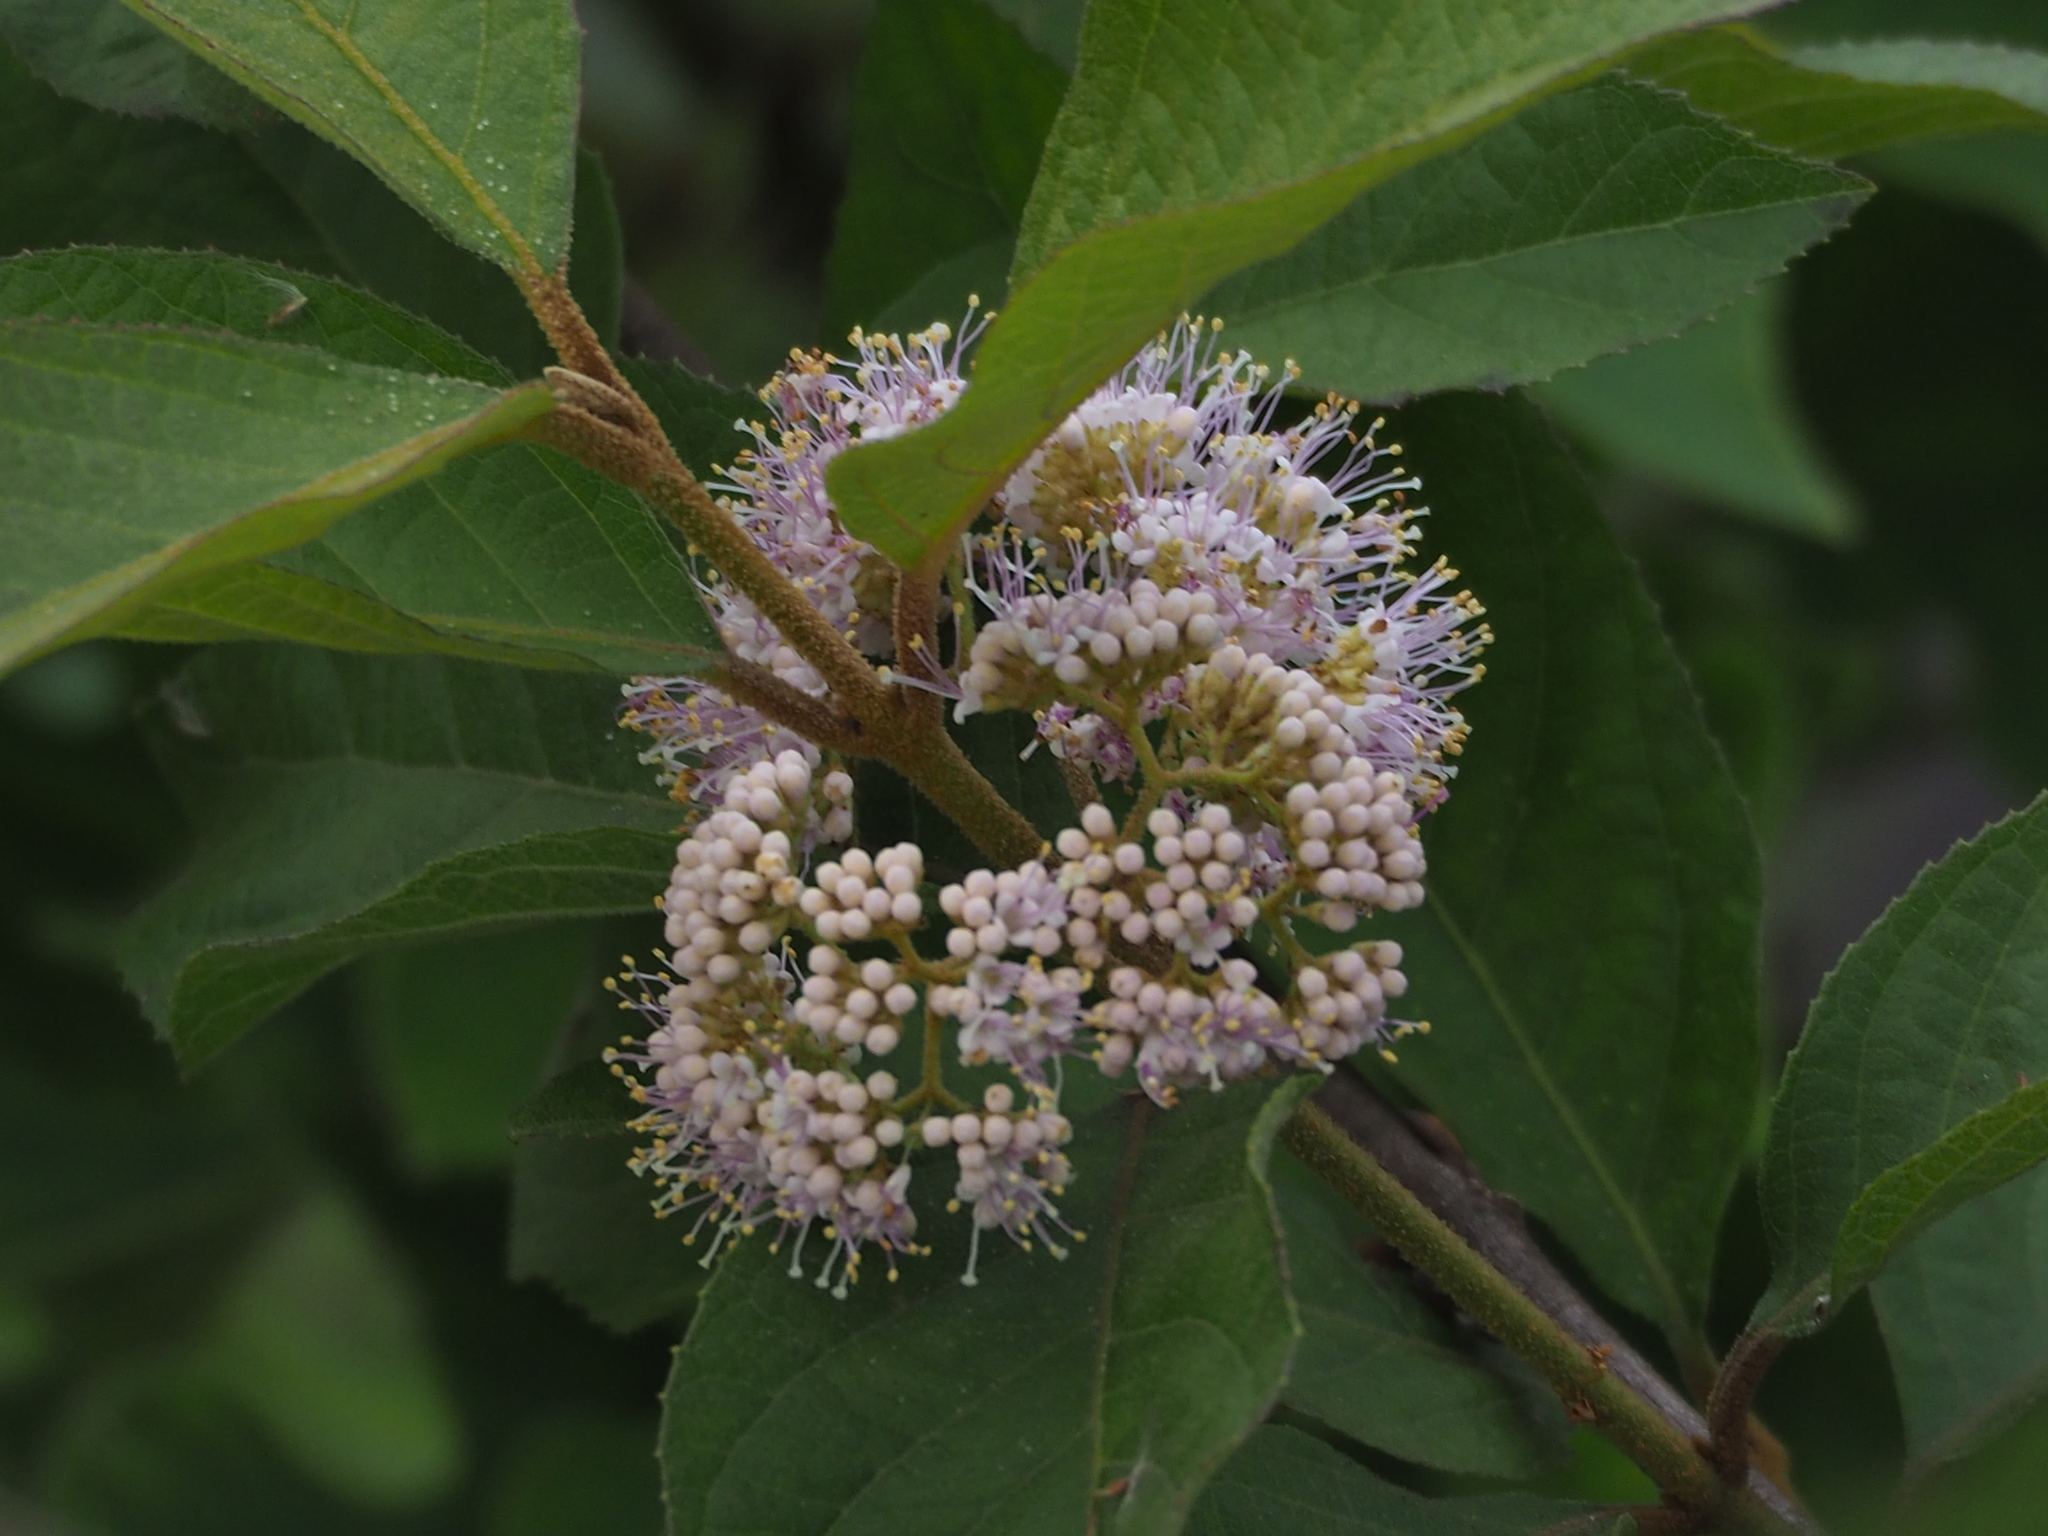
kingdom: Plantae
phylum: Tracheophyta
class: Magnoliopsida
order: Lamiales
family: Lamiaceae
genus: Callicarpa
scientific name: Callicarpa pedunculata
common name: Velvetleaf
